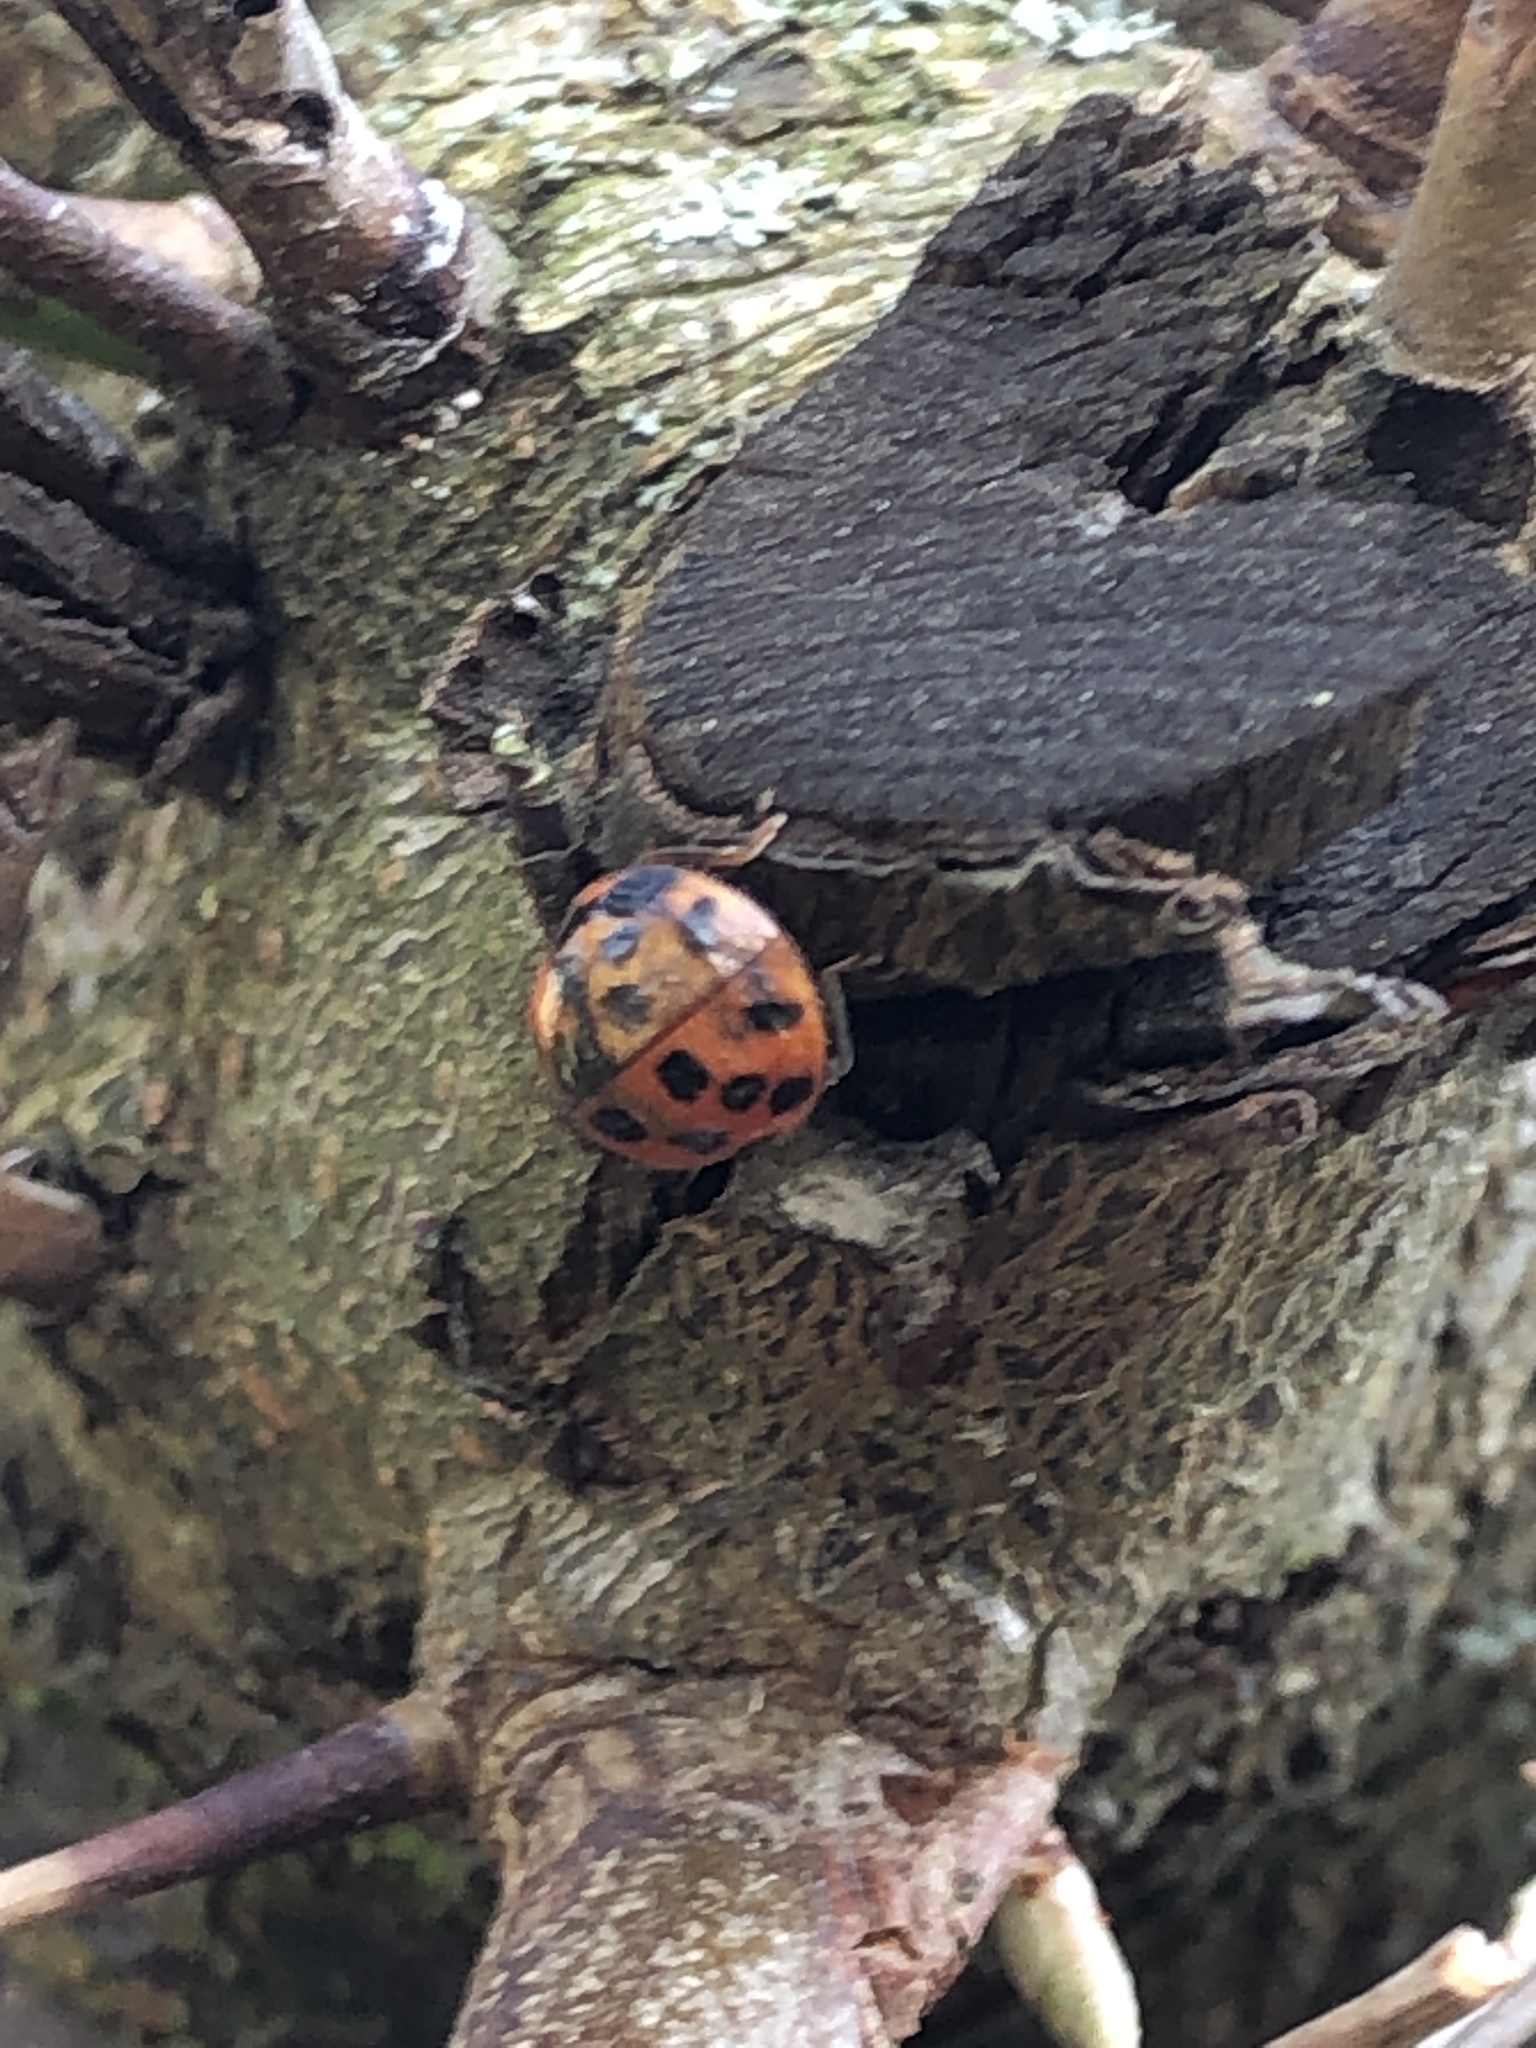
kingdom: Animalia
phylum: Arthropoda
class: Insecta
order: Coleoptera
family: Coccinellidae
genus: Harmonia
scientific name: Harmonia axyridis
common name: Harlequin ladybird
